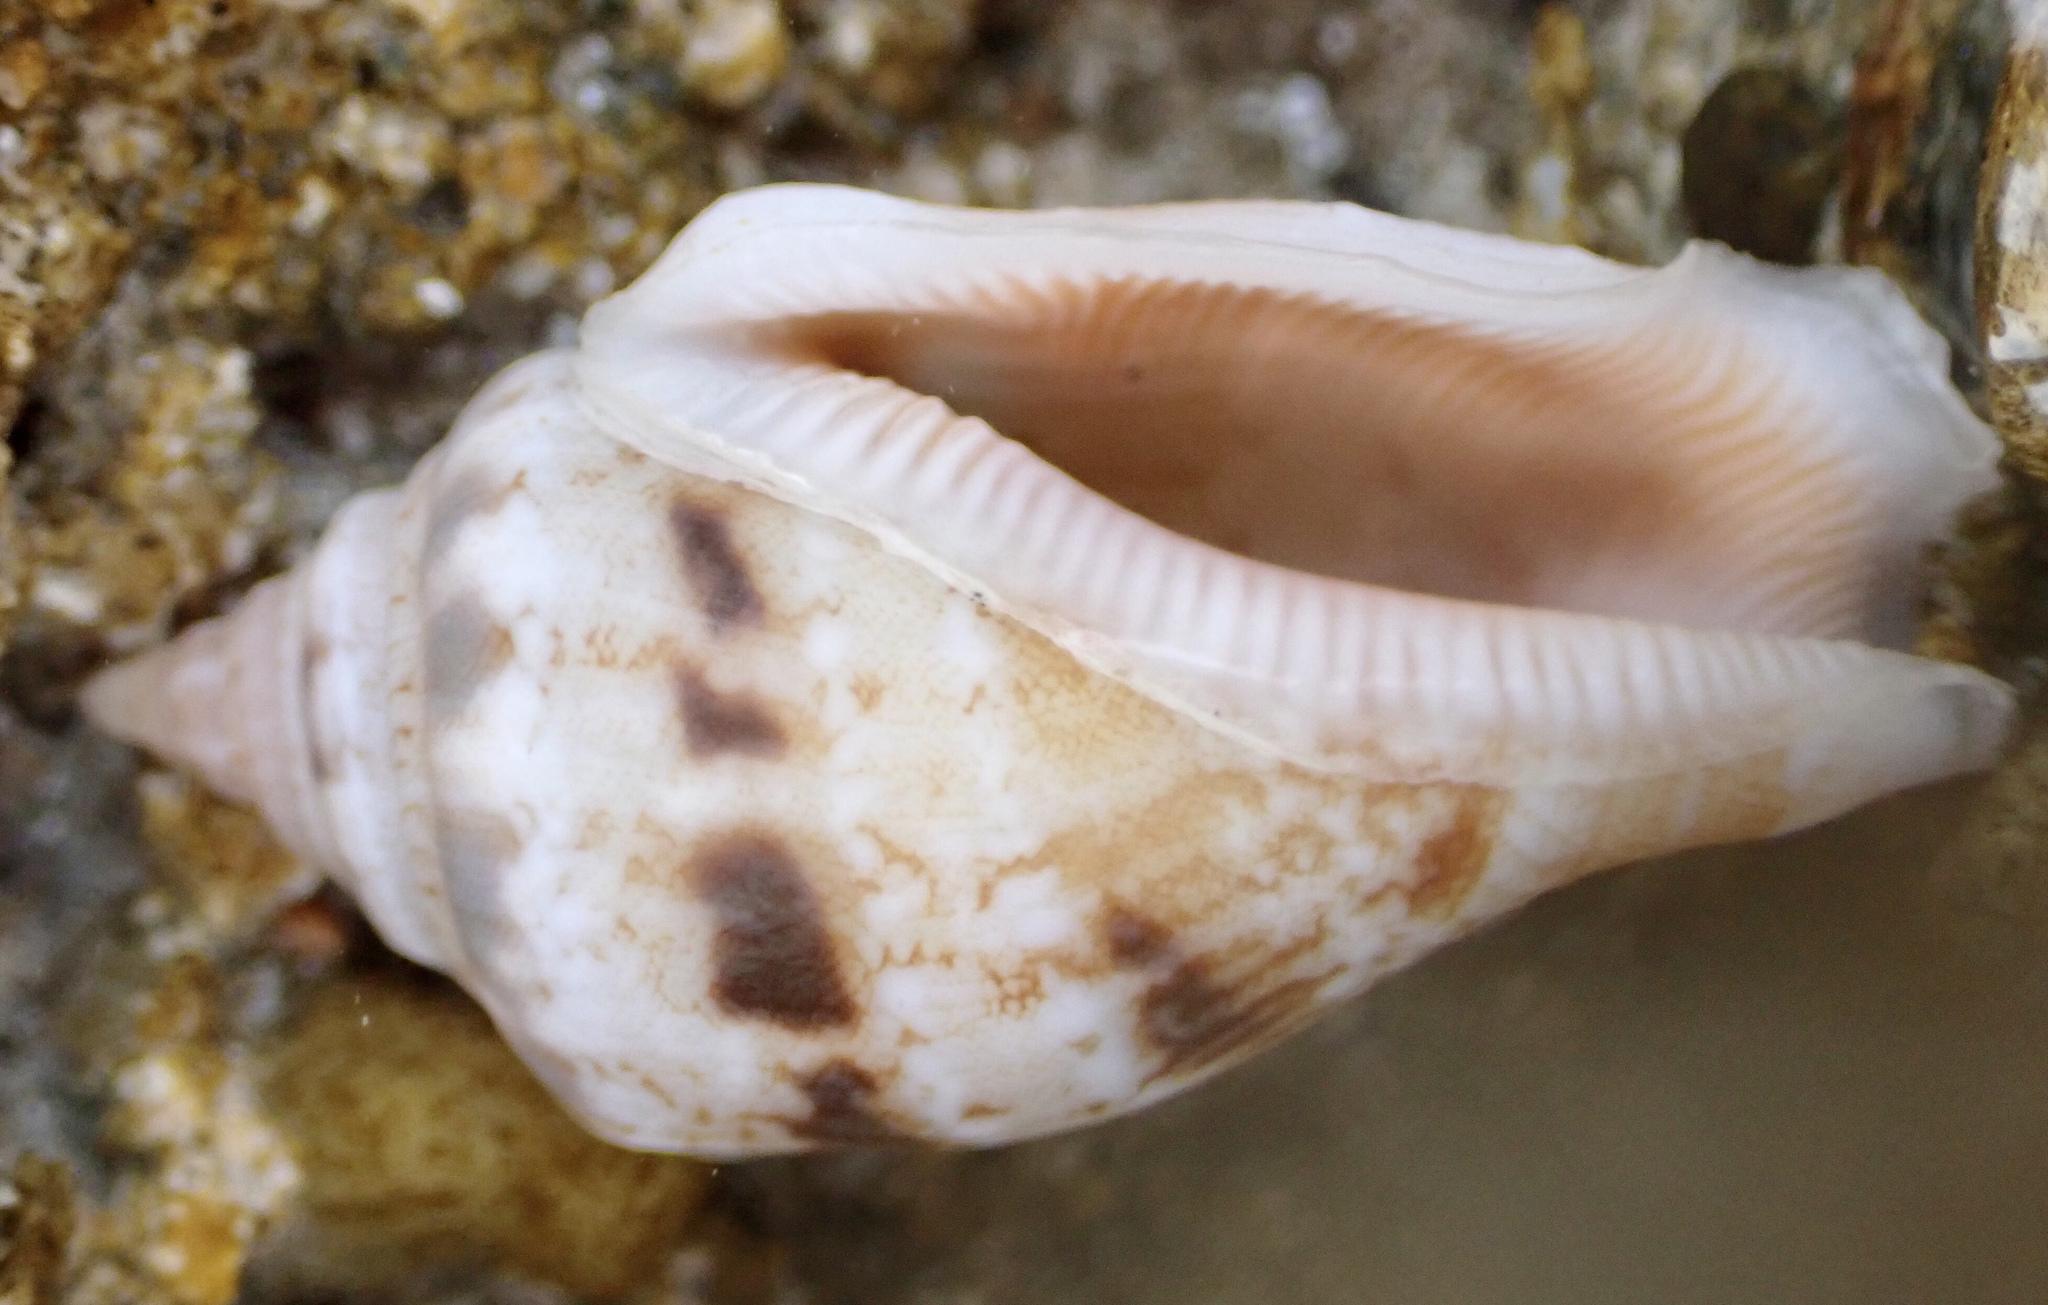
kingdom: Animalia
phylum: Mollusca
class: Gastropoda
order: Littorinimorpha
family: Strombidae
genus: Canarium
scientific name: Canarium mutabile
